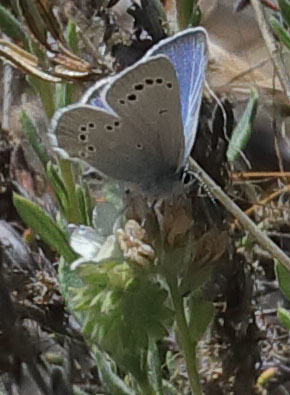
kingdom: Animalia
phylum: Arthropoda
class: Insecta
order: Lepidoptera
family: Lycaenidae
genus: Glaucopsyche
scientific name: Glaucopsyche lygdamus
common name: Silvery blue
